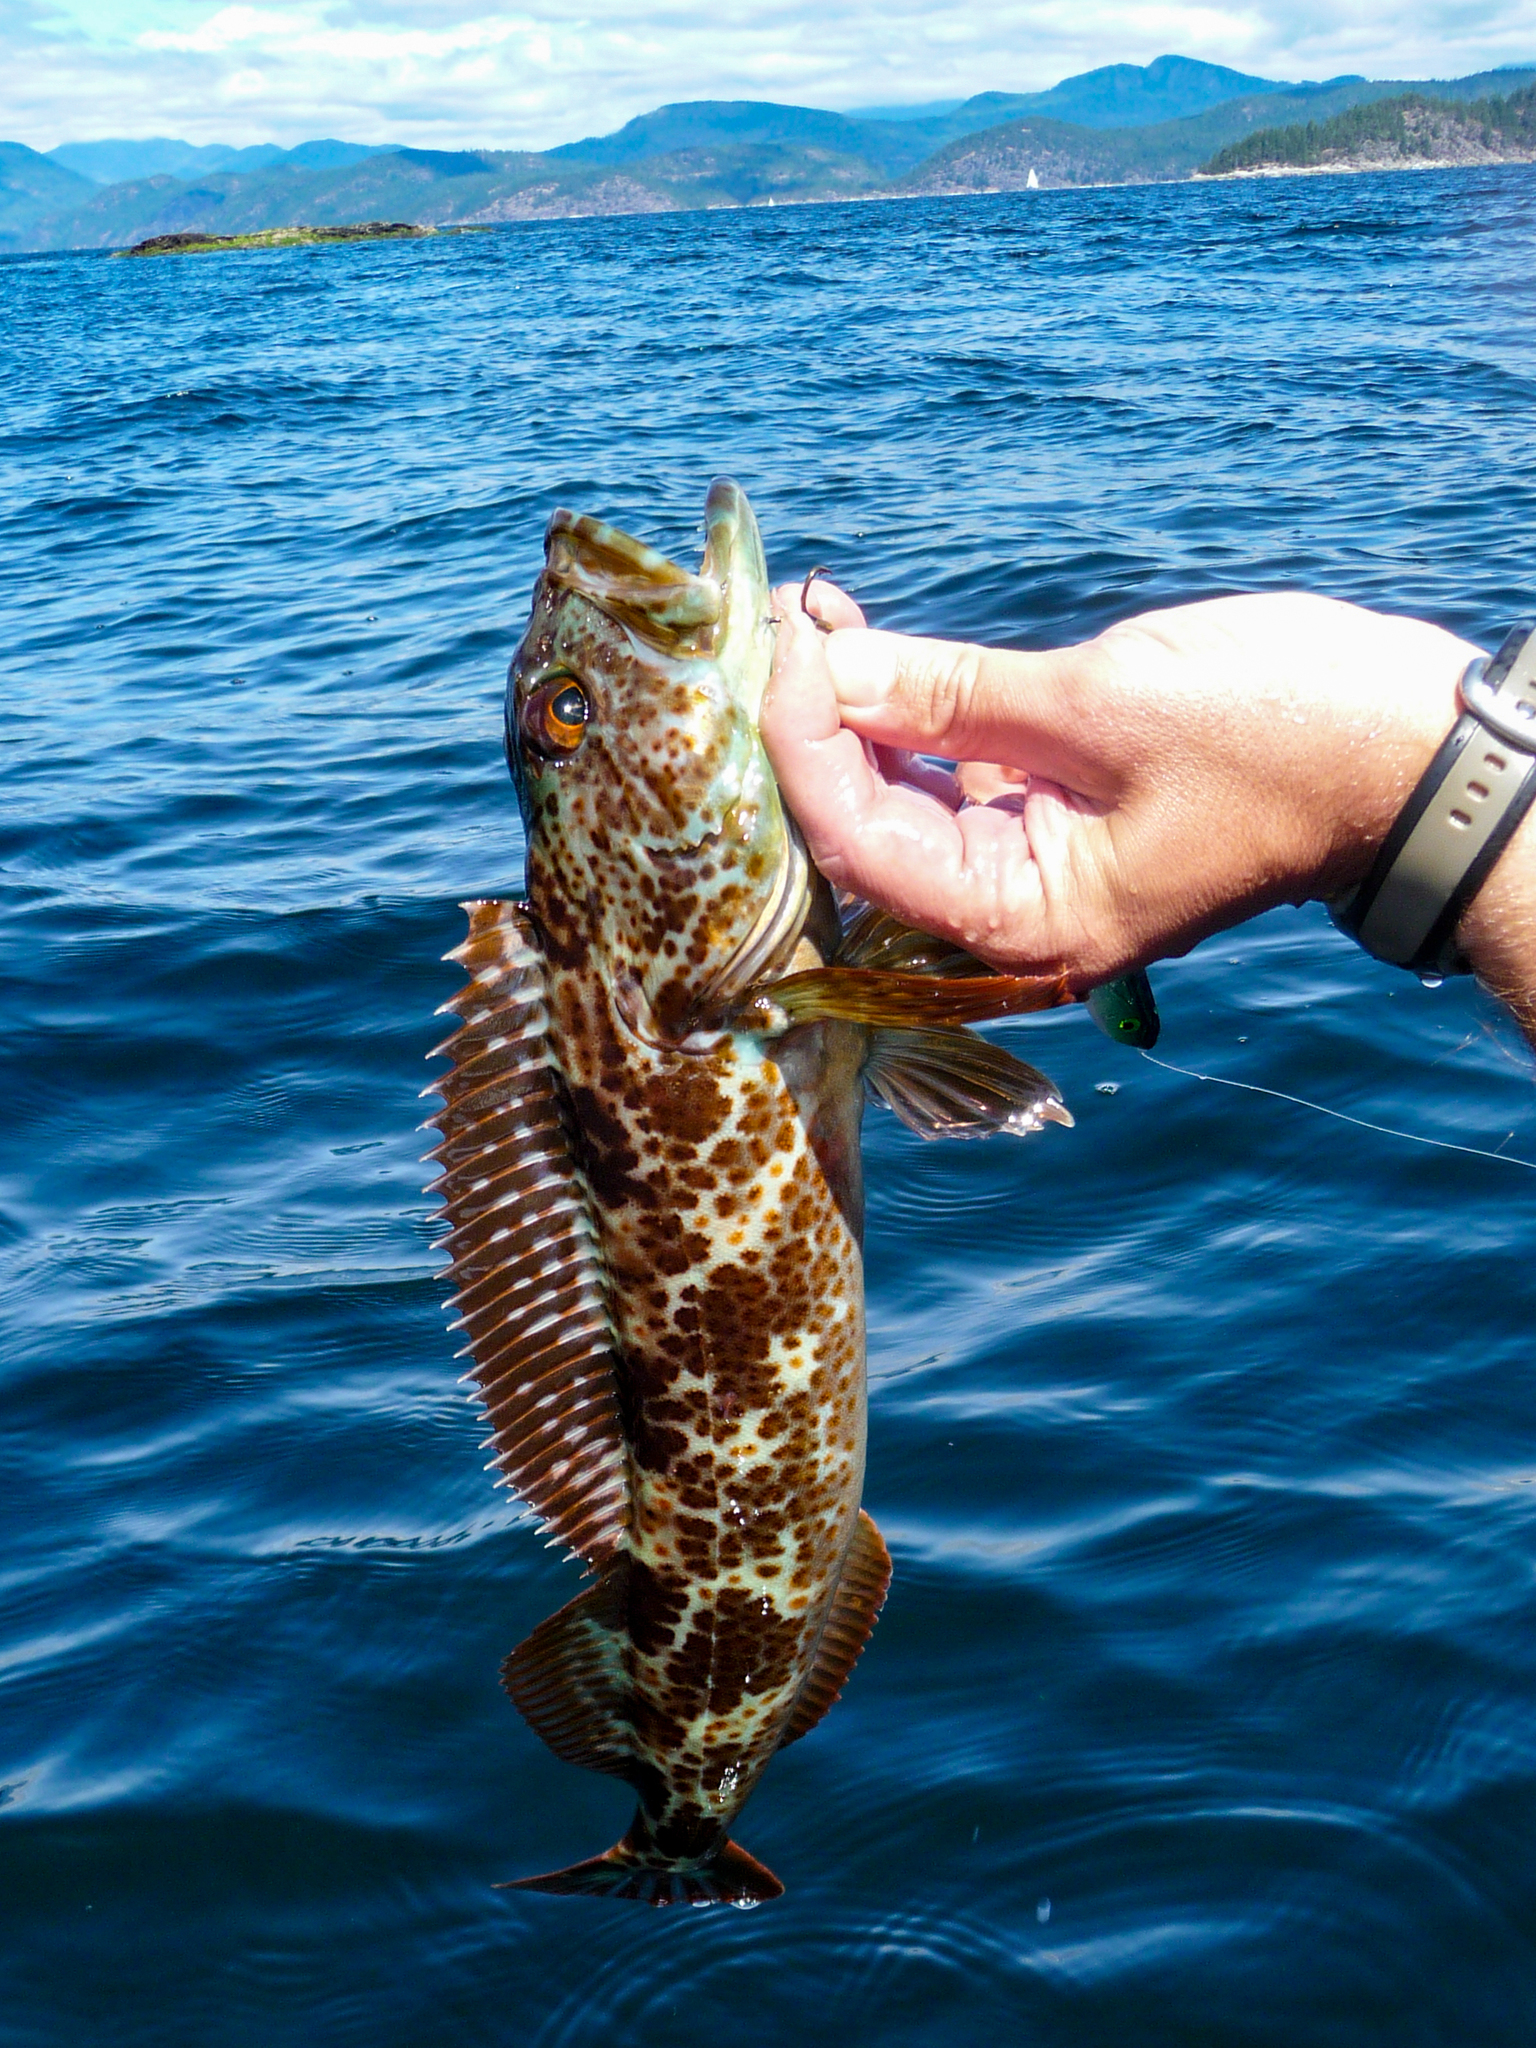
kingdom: Animalia
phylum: Chordata
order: Scorpaeniformes
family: Hexagrammidae
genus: Ophiodon
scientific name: Ophiodon elongatus
